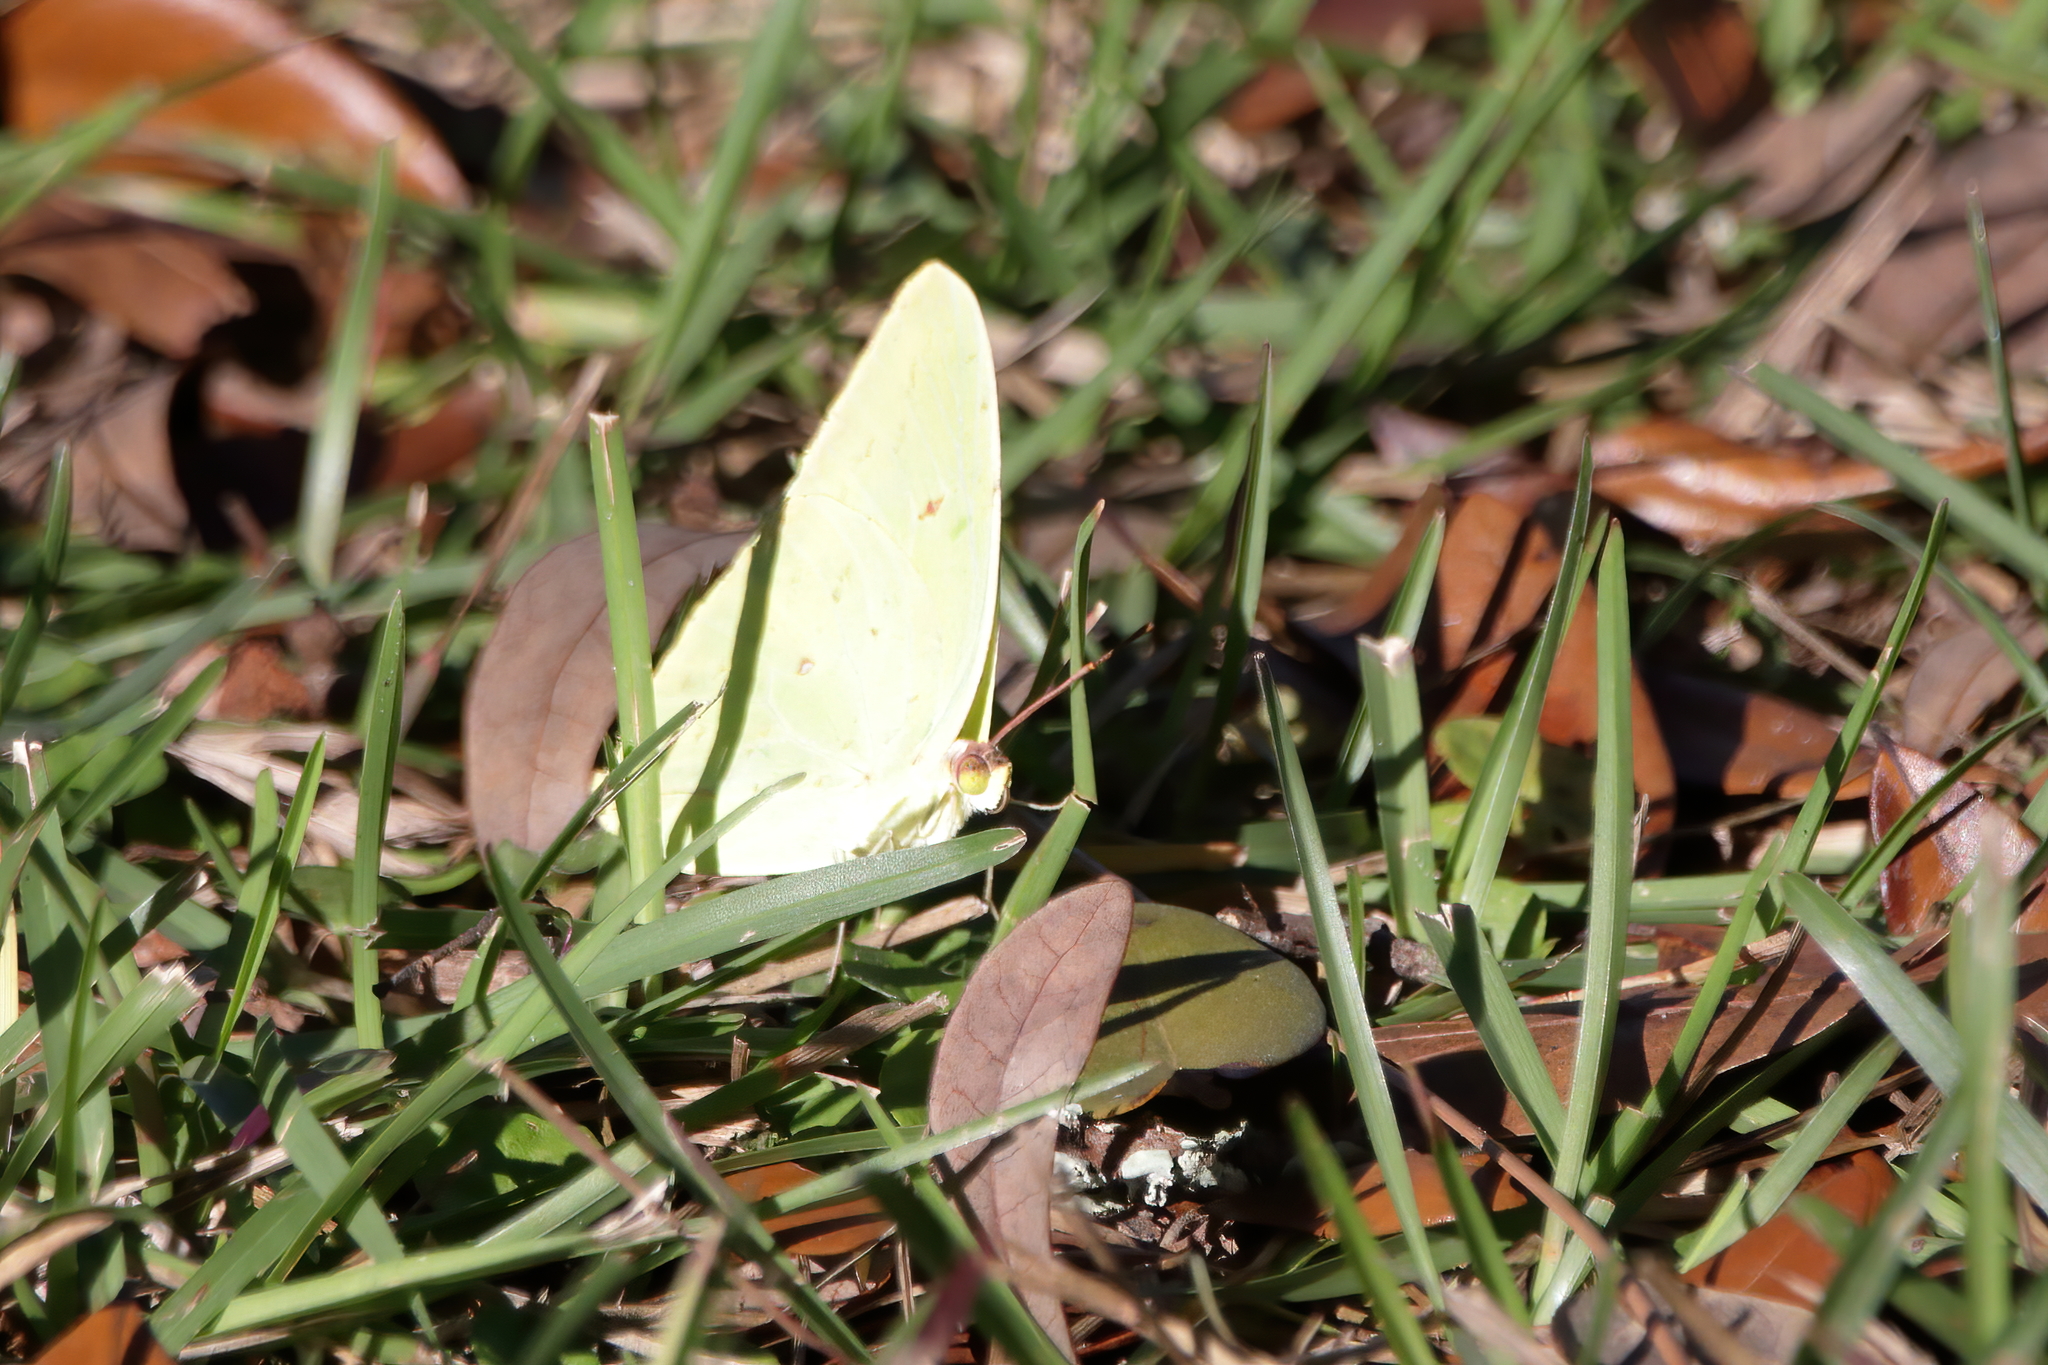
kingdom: Animalia
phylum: Arthropoda
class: Insecta
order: Lepidoptera
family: Pieridae
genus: Phoebis
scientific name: Phoebis sennae
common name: Cloudless sulphur
